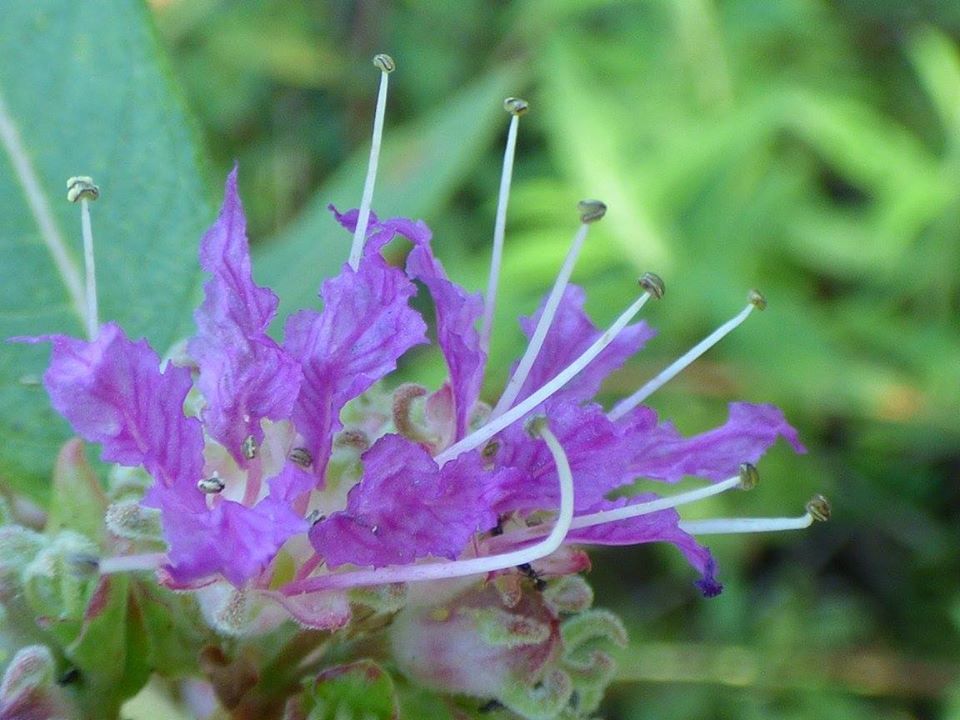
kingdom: Plantae
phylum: Tracheophyta
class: Magnoliopsida
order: Myrtales
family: Lythraceae
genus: Decodon
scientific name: Decodon verticillatus
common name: Hairy swamp loosestrife
